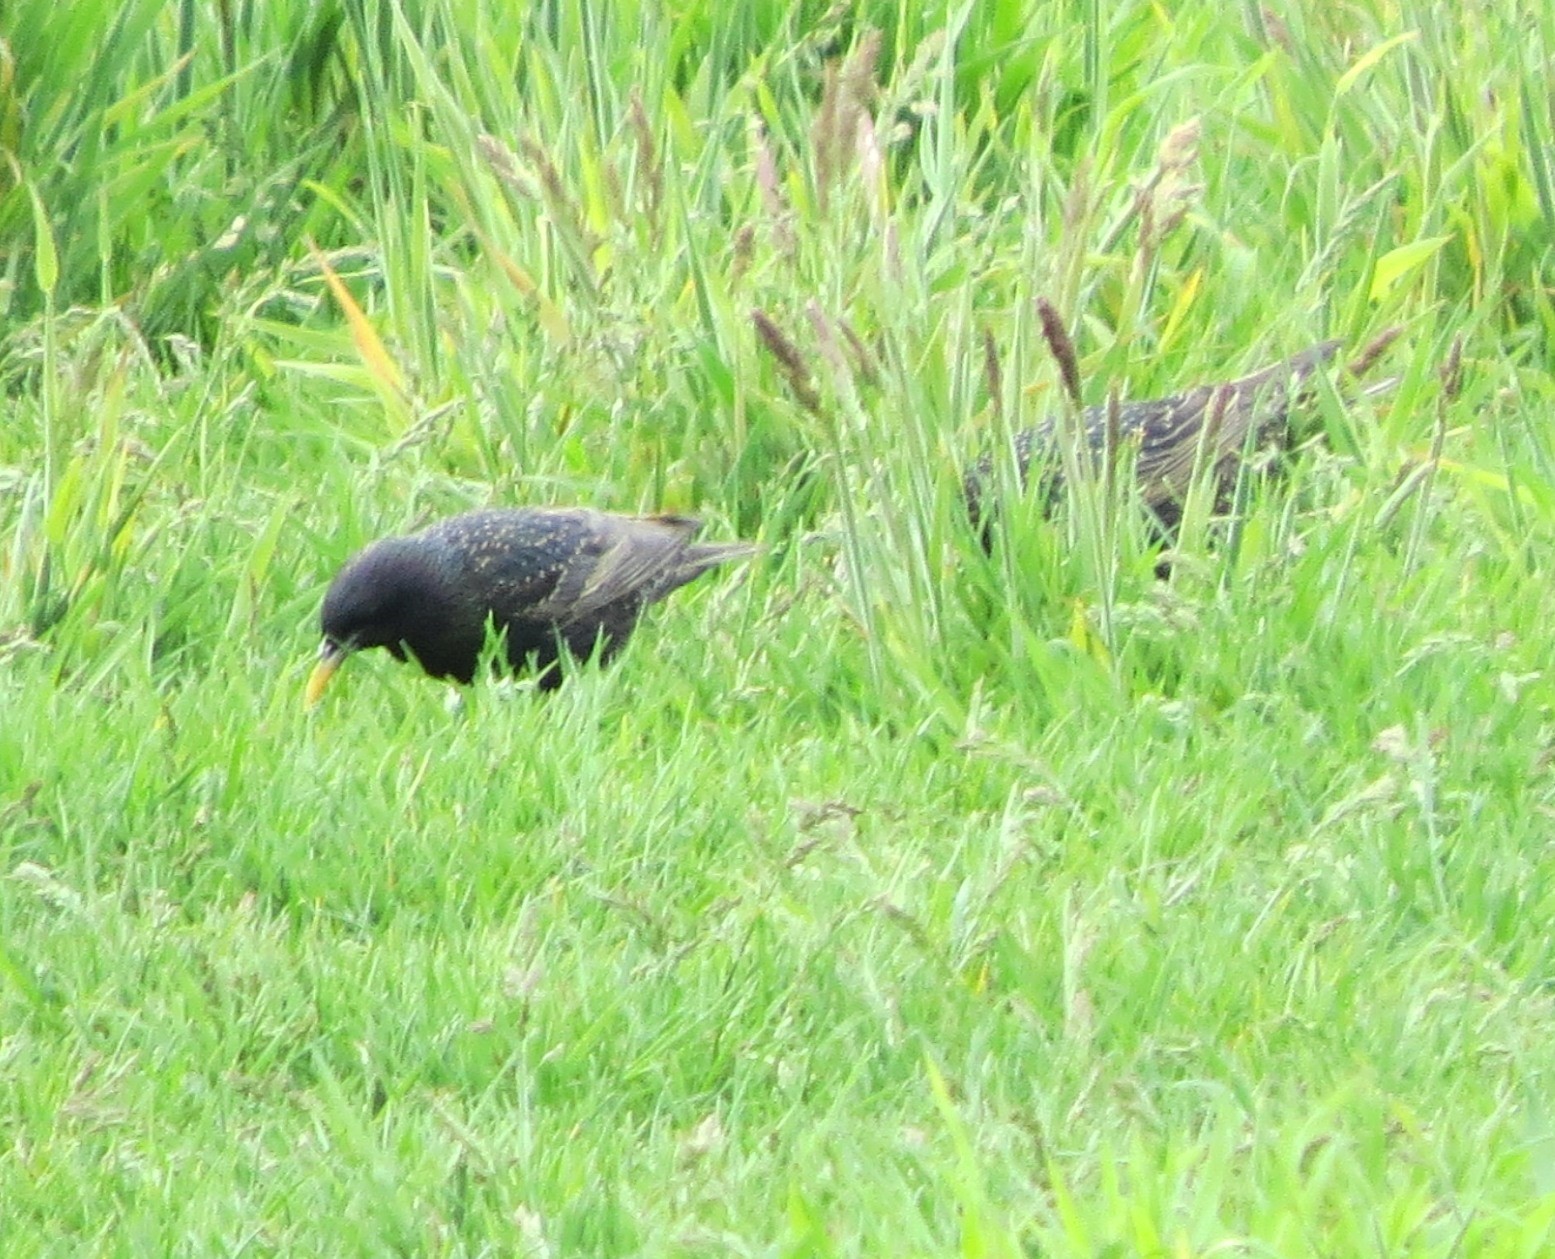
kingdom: Animalia
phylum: Chordata
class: Aves
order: Passeriformes
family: Sturnidae
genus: Sturnus
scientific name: Sturnus vulgaris
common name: Common starling
